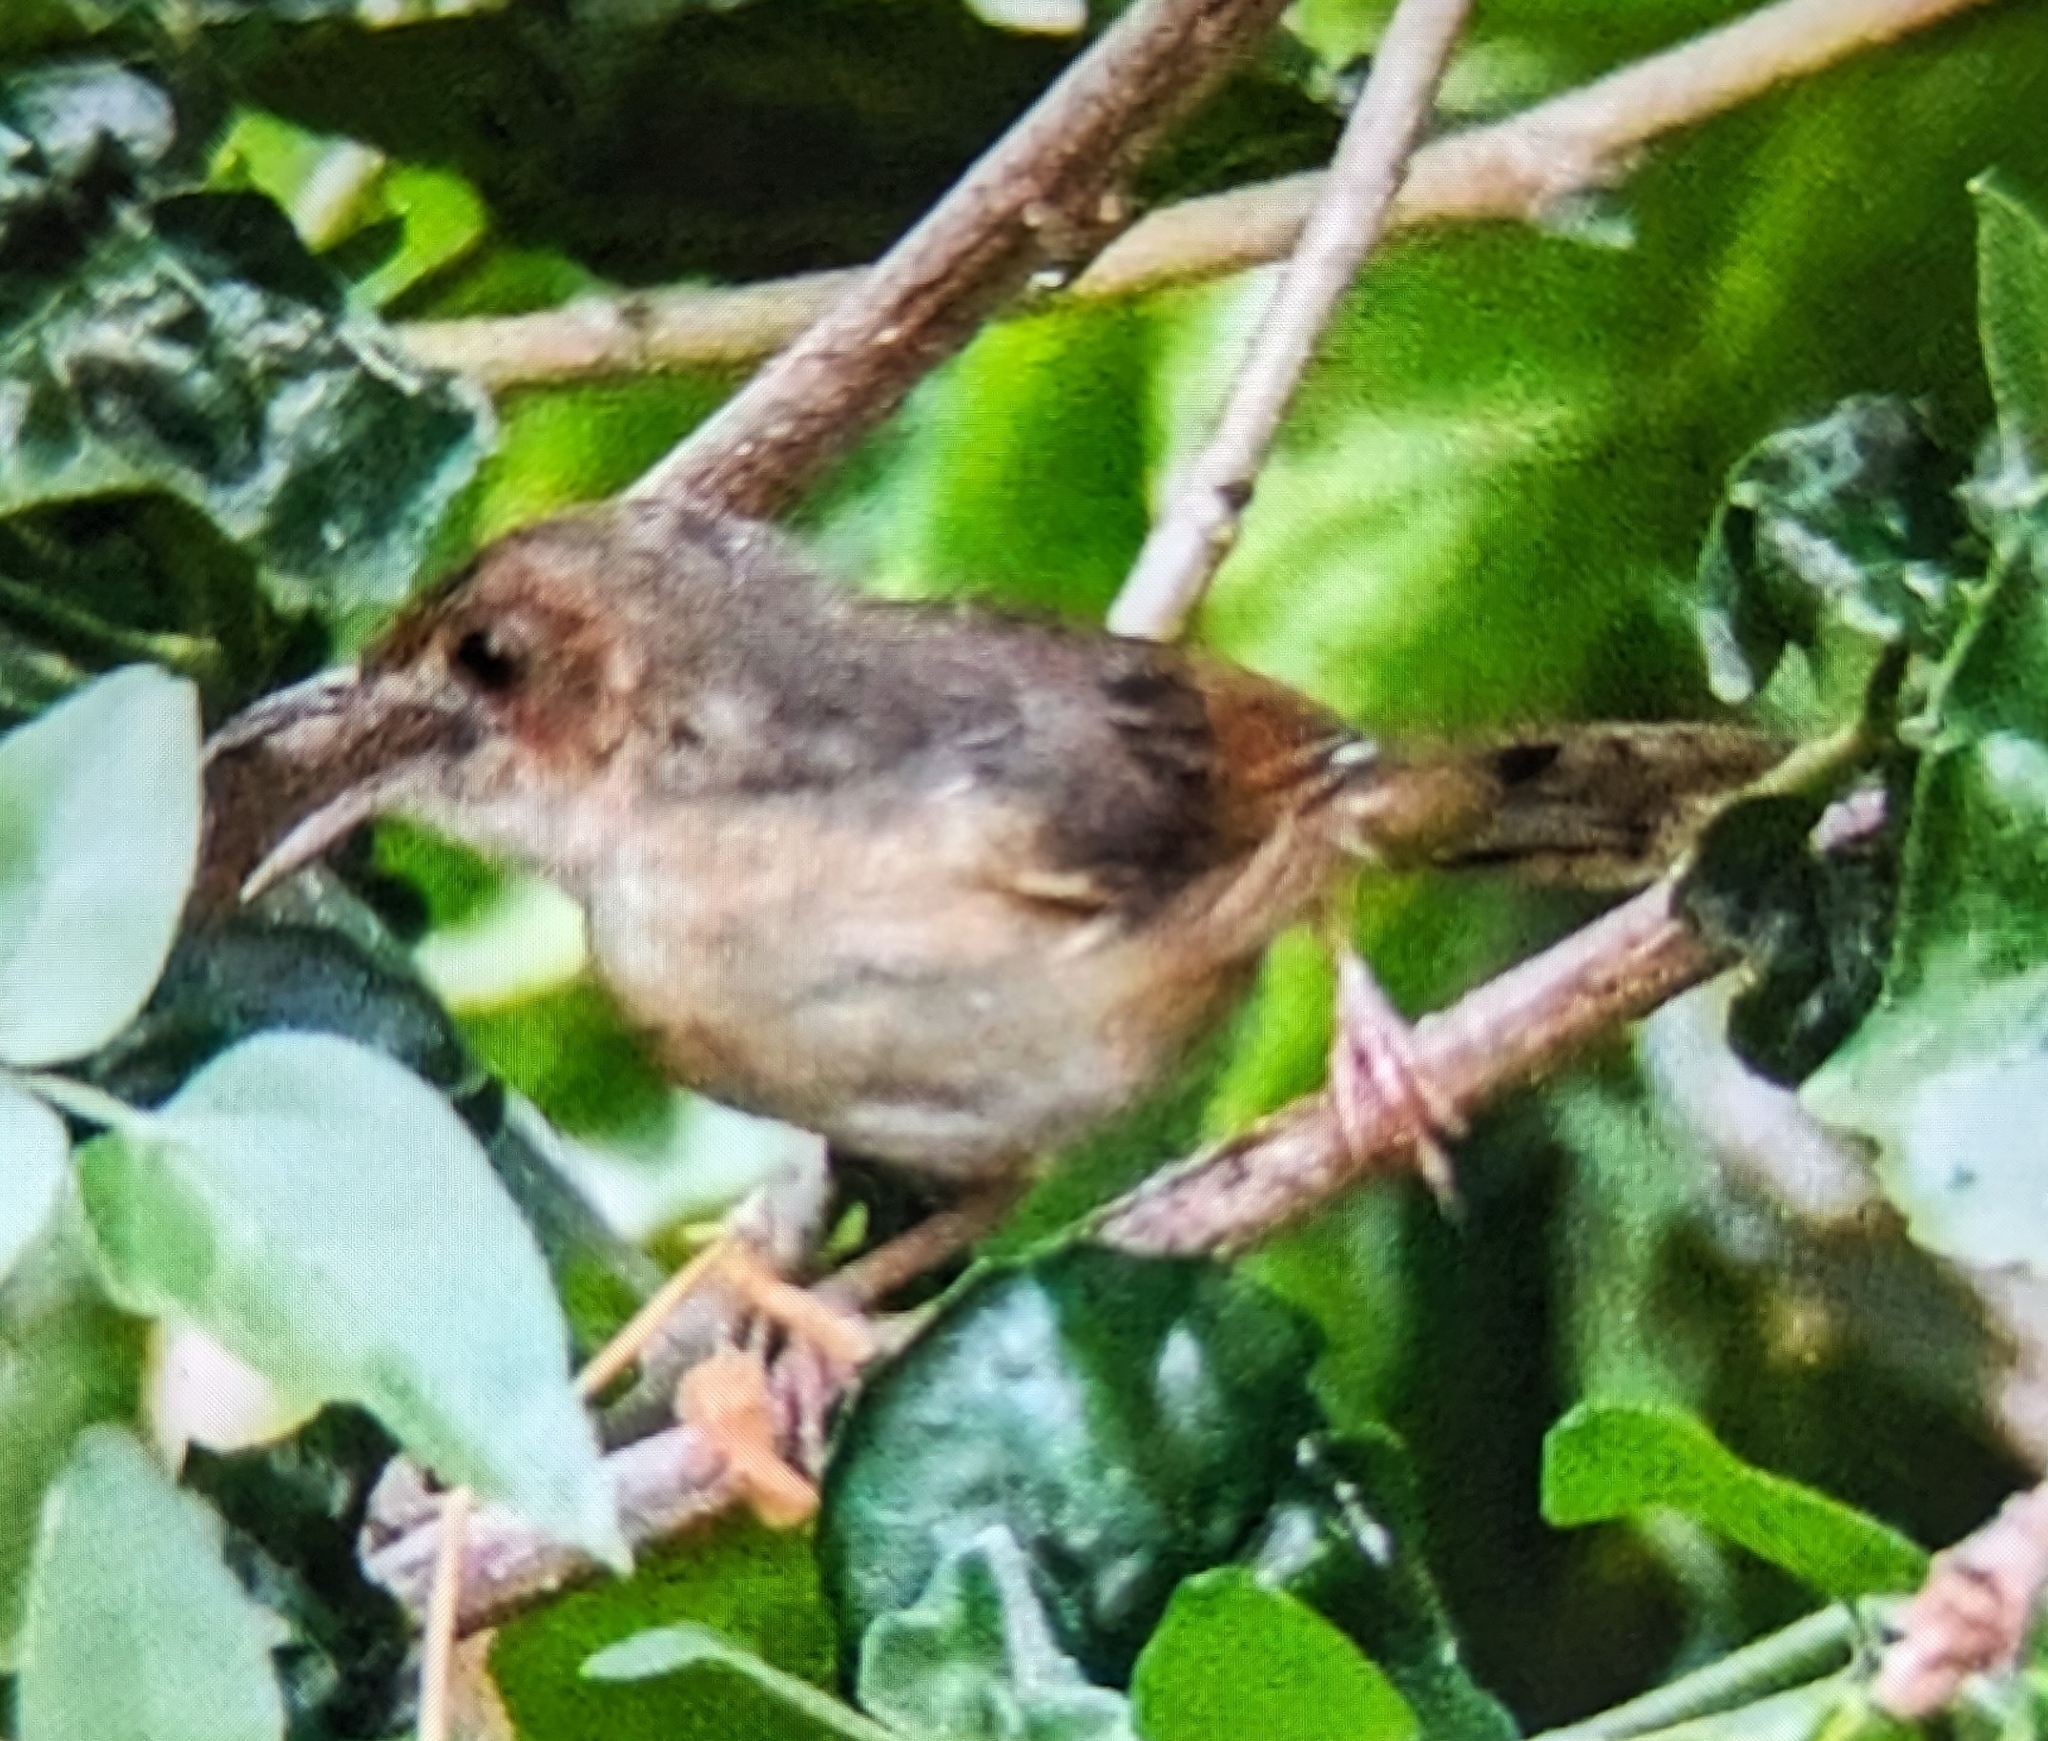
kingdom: Animalia
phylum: Chordata
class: Aves
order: Passeriformes
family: Cisticolidae
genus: Cisticola
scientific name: Cisticola erythrops
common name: Red-faced cisticola
